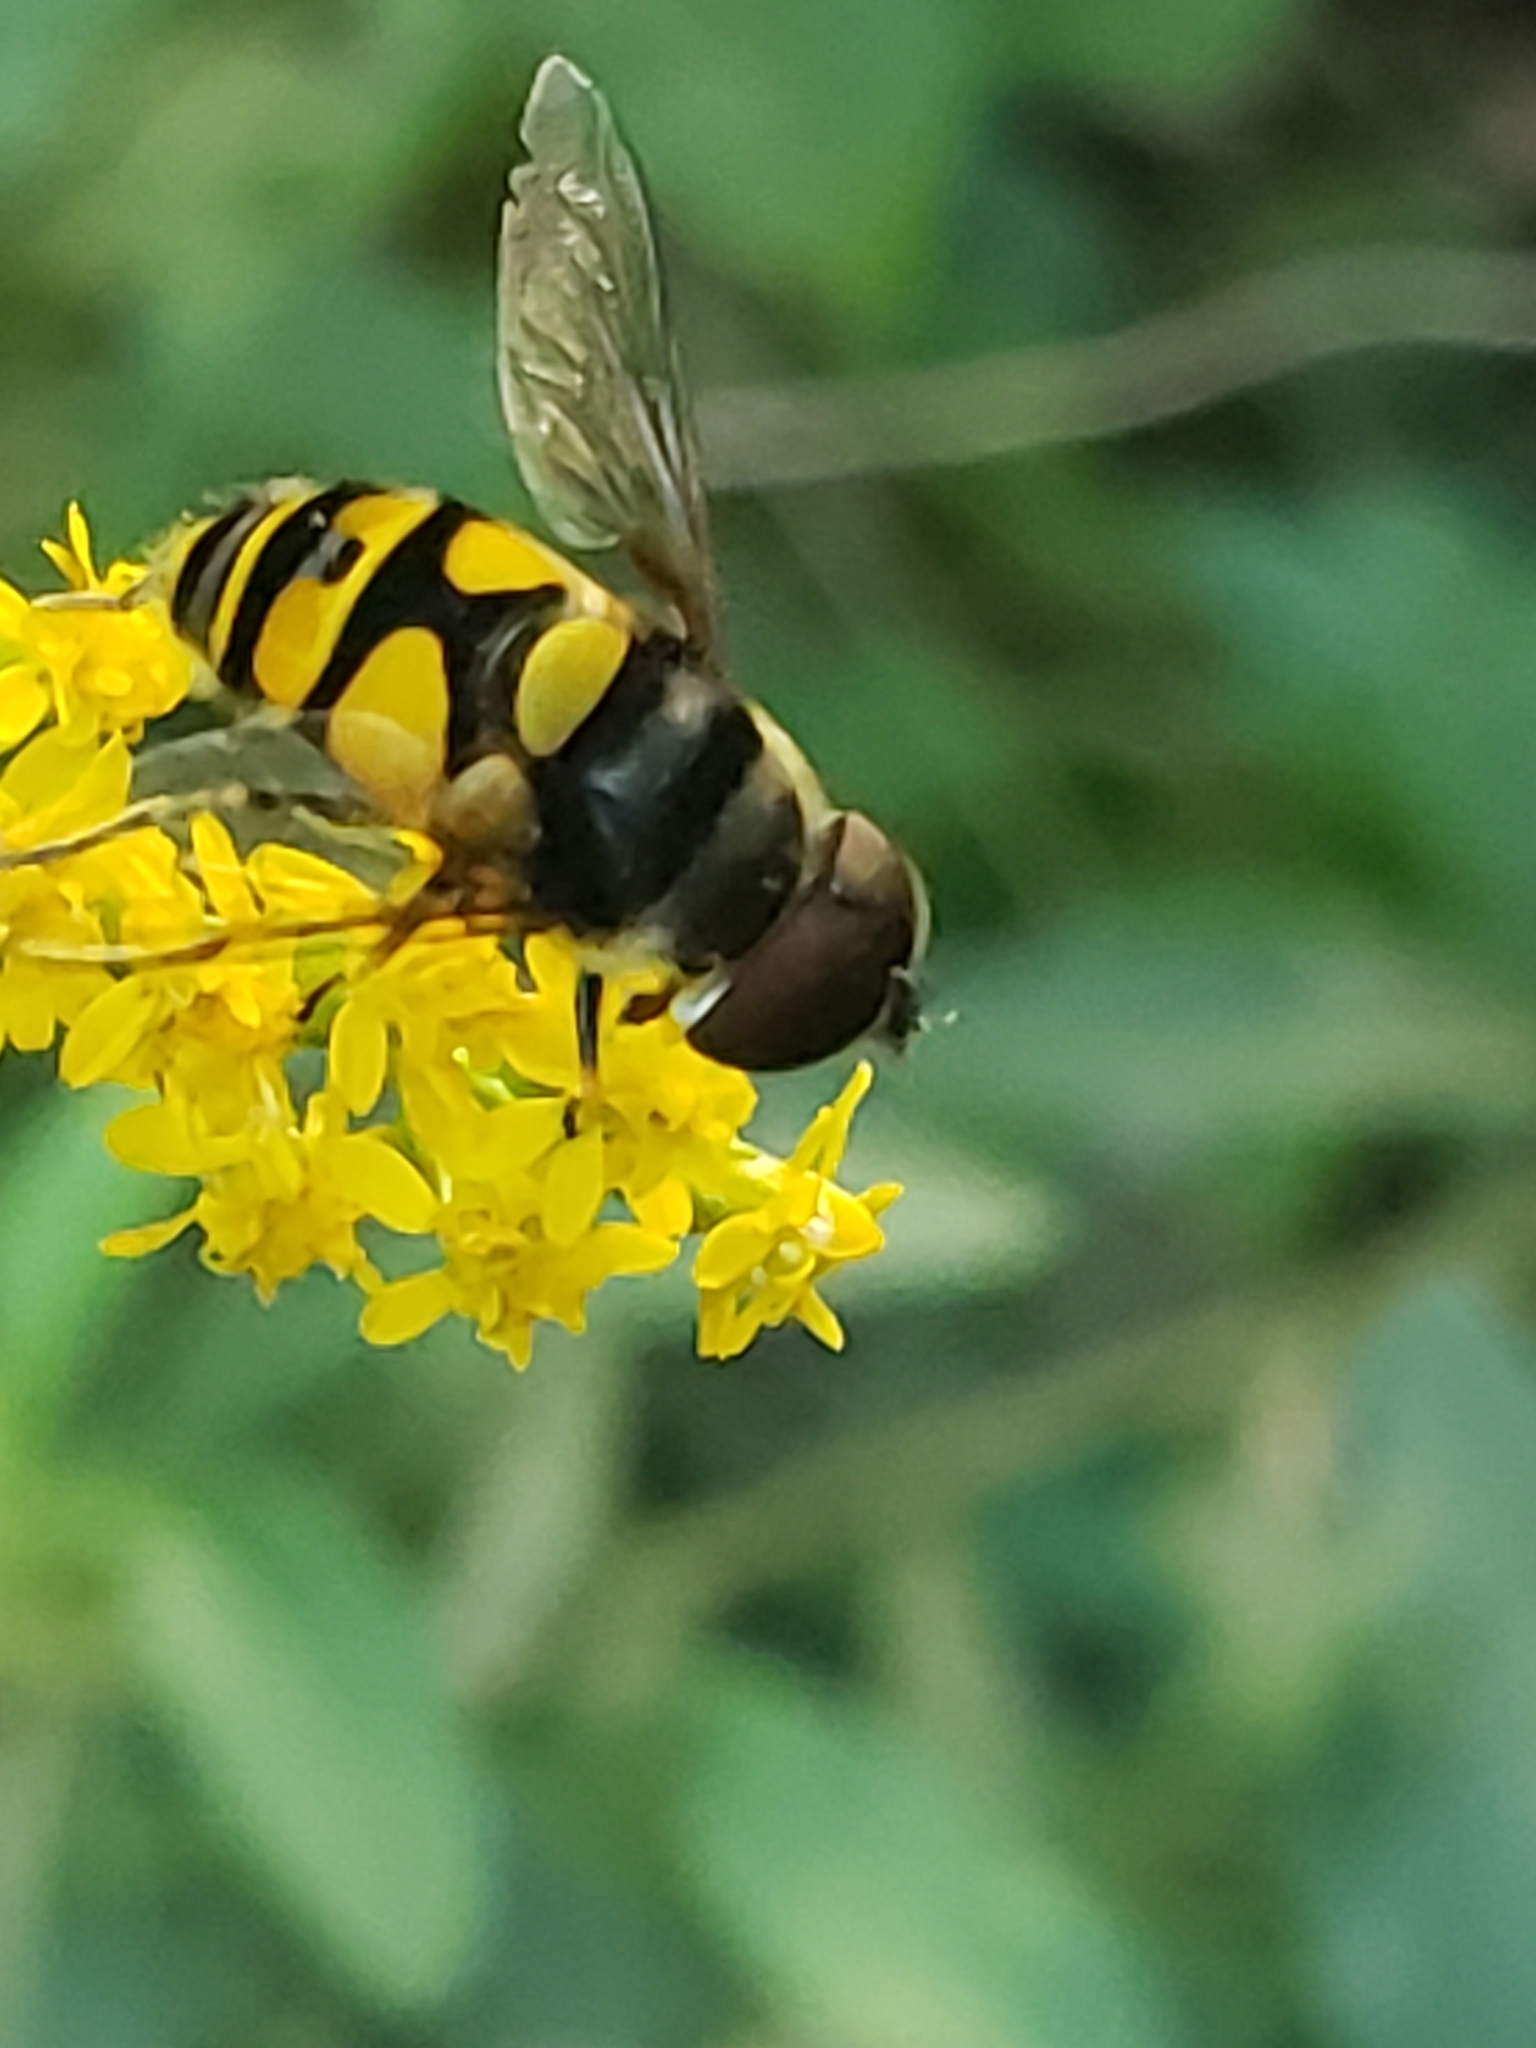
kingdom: Animalia
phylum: Arthropoda
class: Insecta
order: Diptera
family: Syrphidae
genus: Eristalis
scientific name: Eristalis transversa
